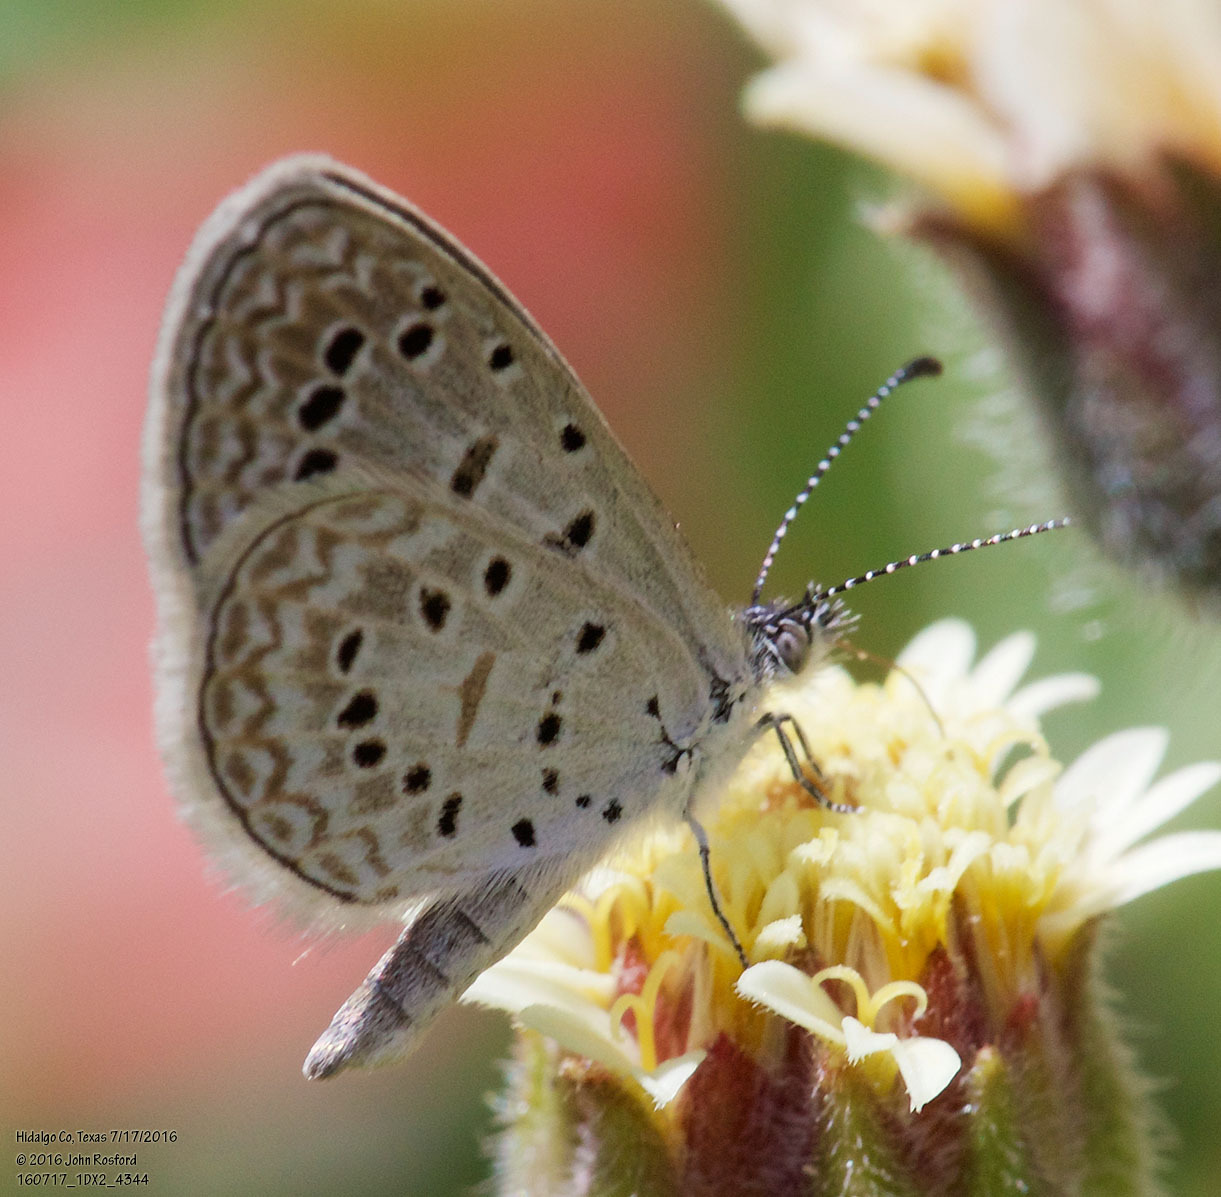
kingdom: Animalia
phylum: Arthropoda
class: Insecta
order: Lepidoptera
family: Lycaenidae
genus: Lycaena
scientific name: Lycaena cyna
